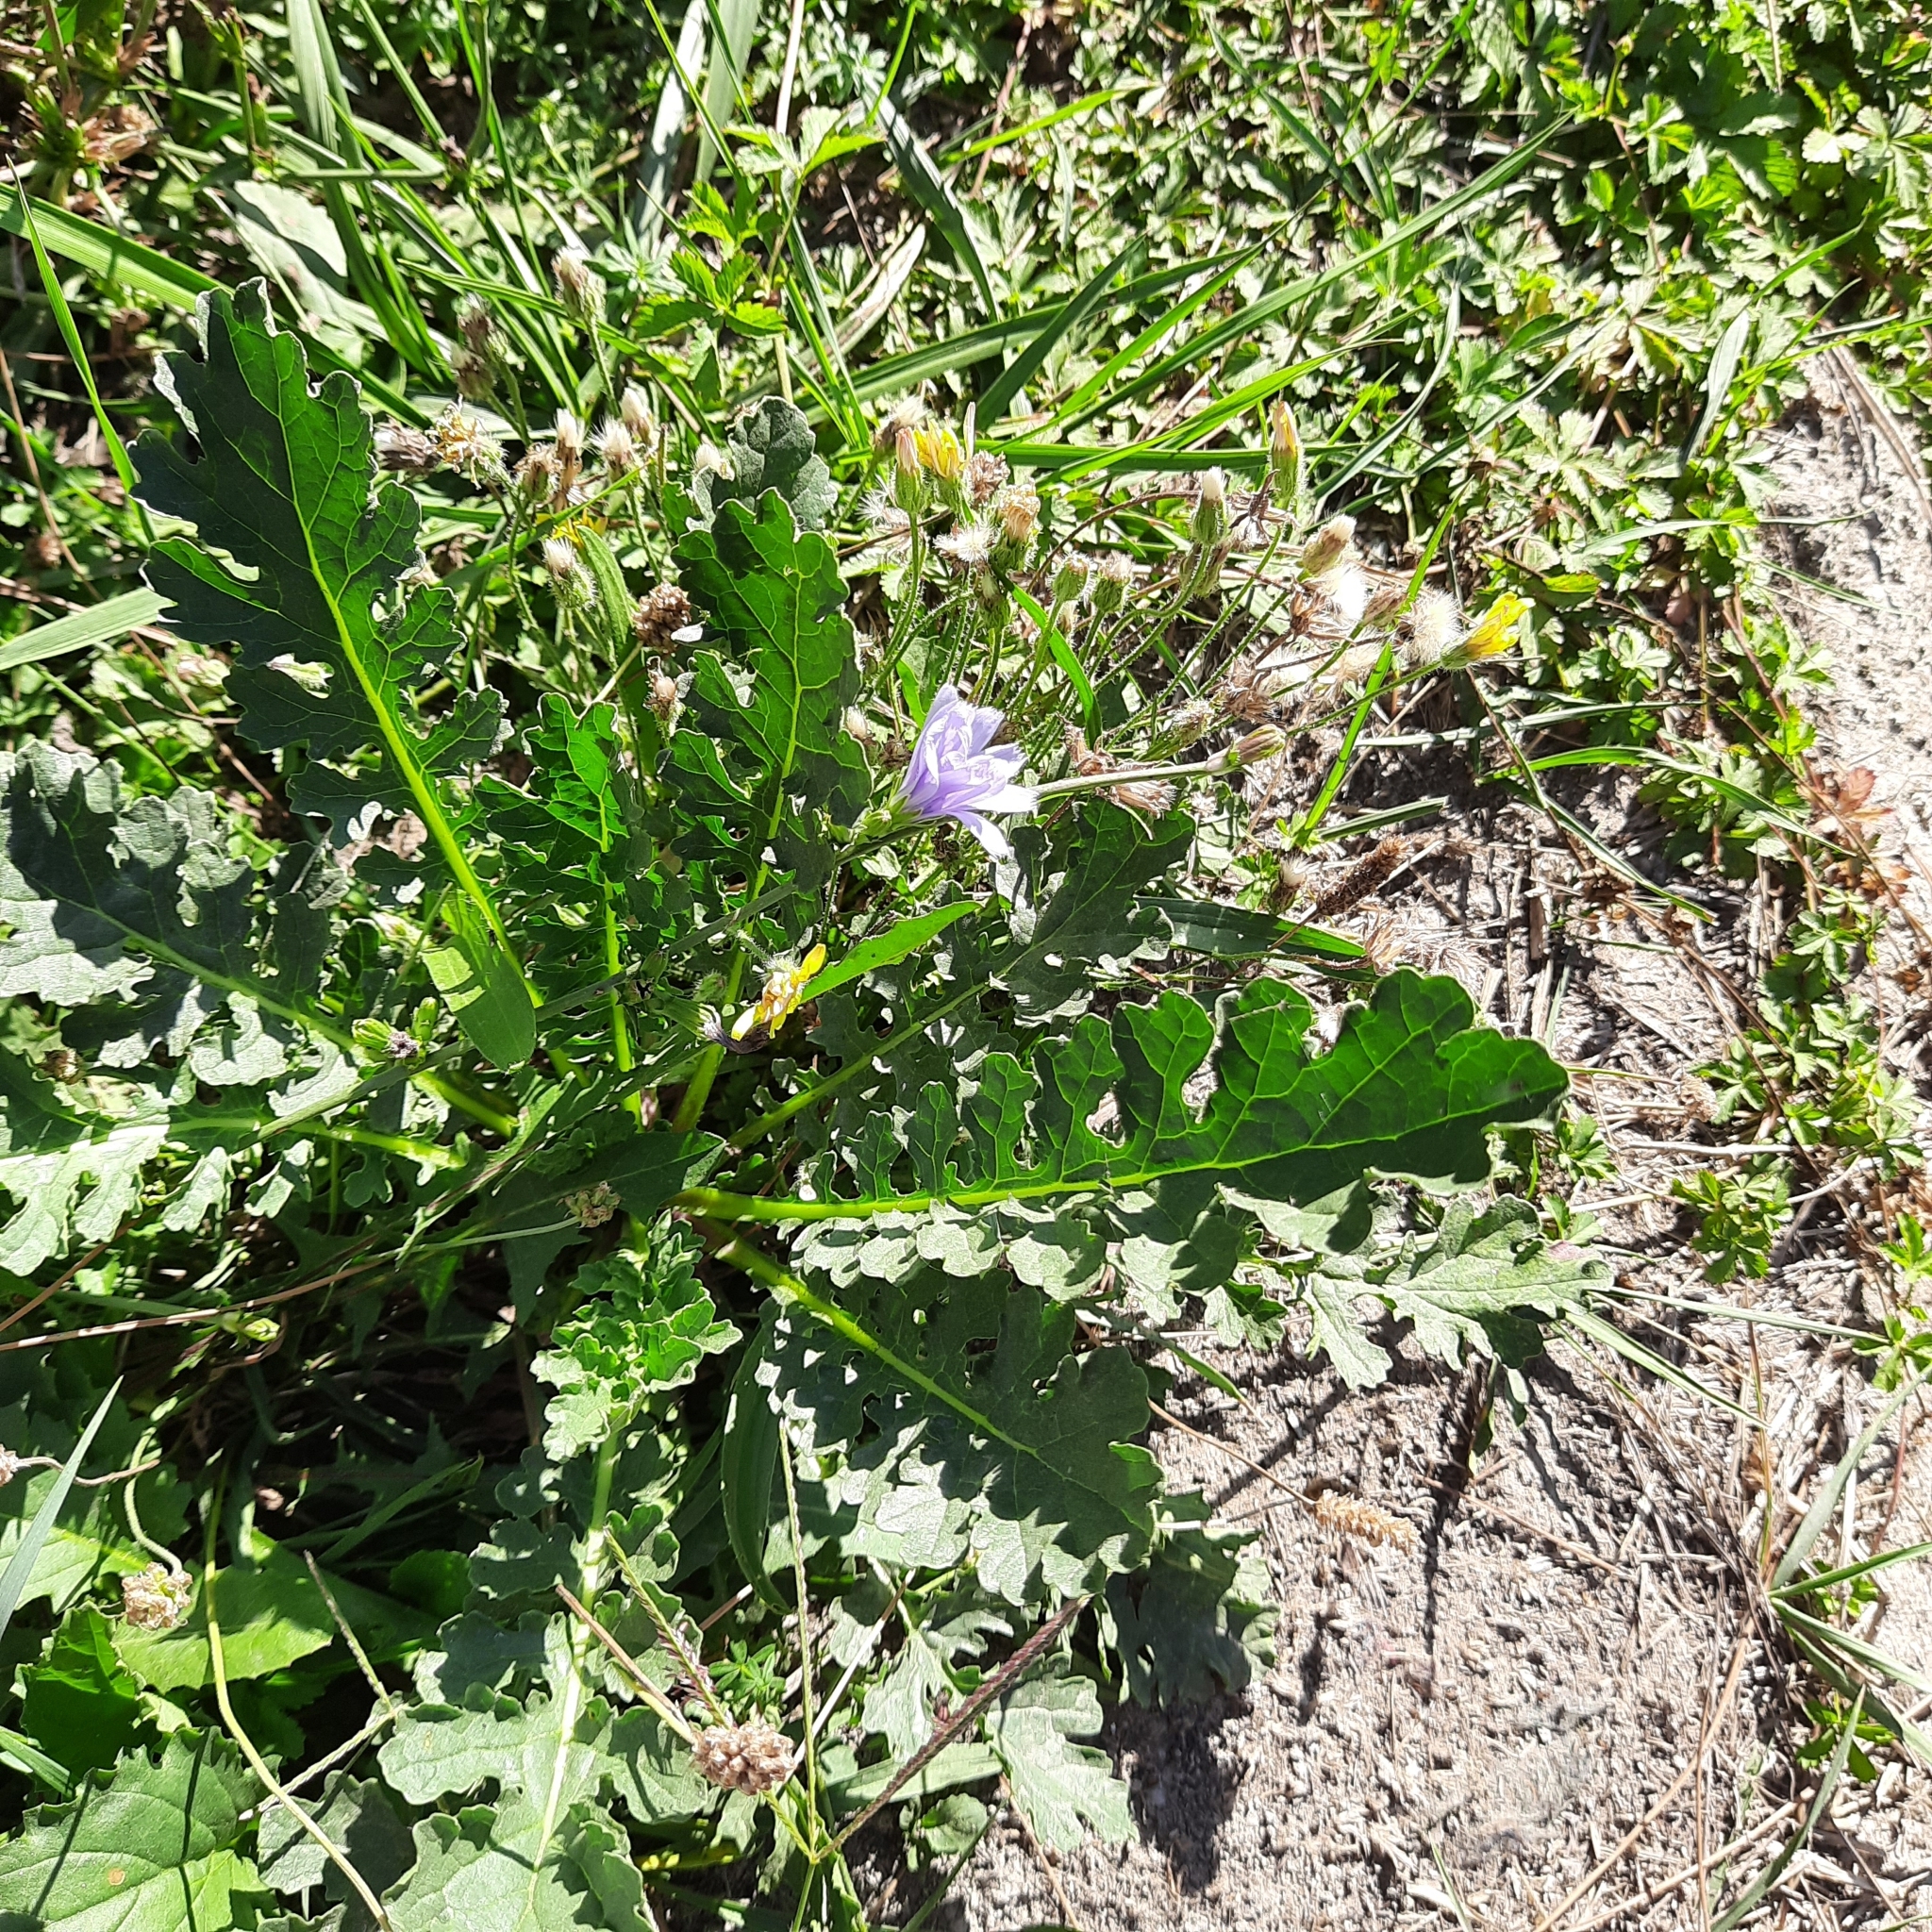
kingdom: Plantae
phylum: Tracheophyta
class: Magnoliopsida
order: Asterales
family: Asteraceae
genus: Cichorium
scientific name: Cichorium intybus
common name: Chicory
